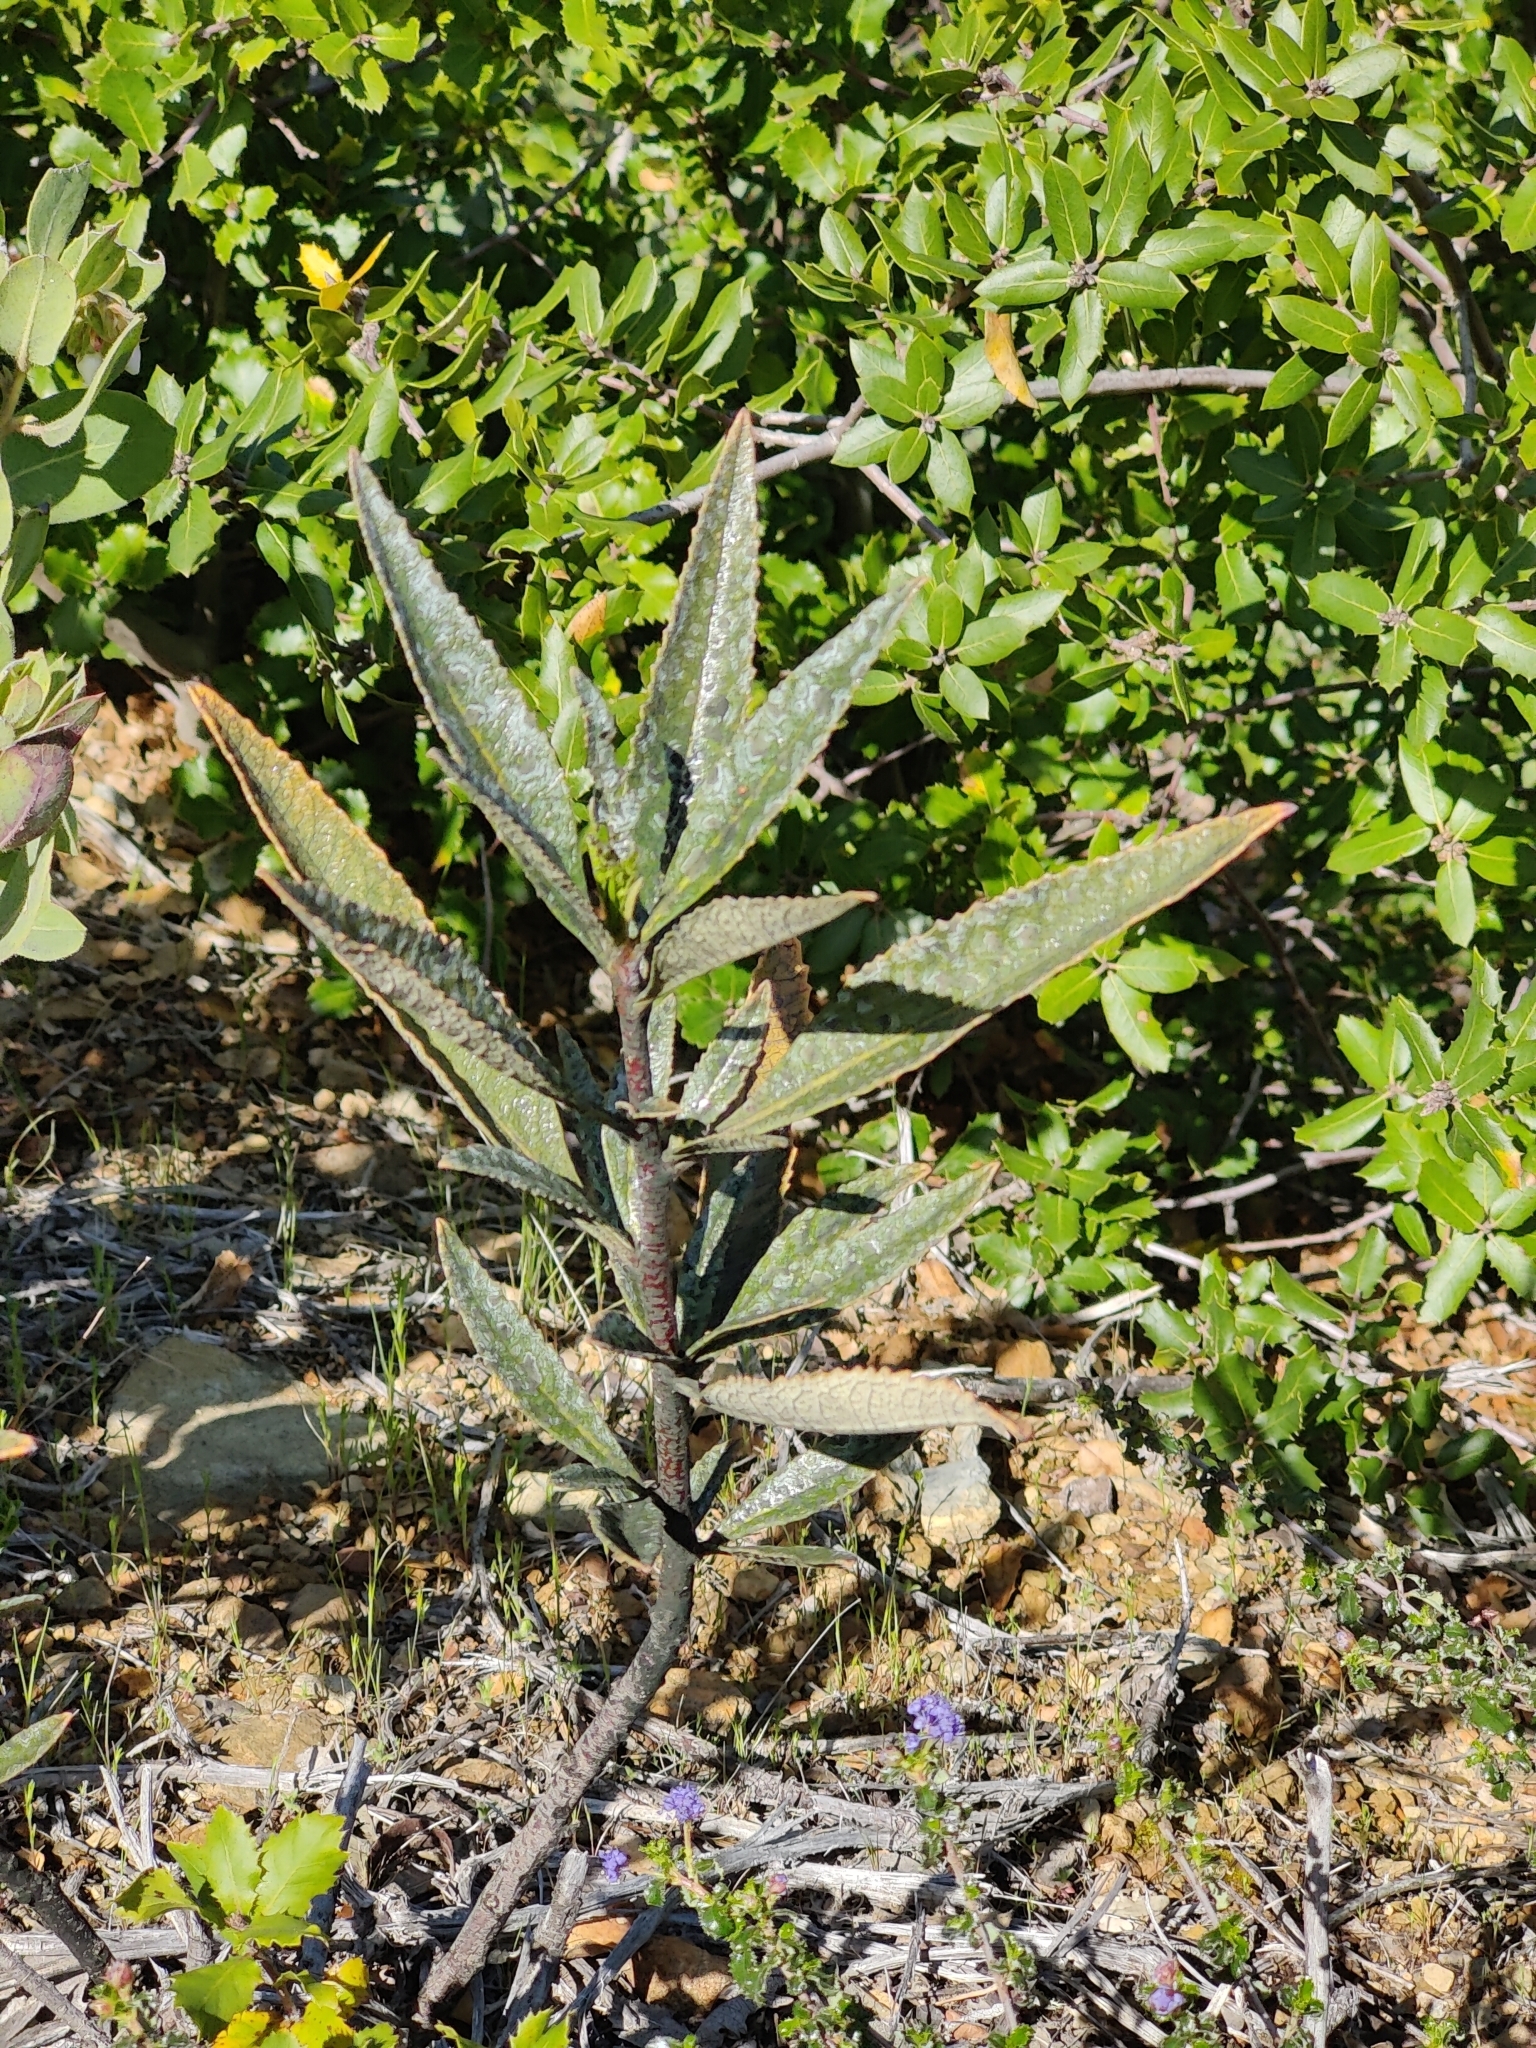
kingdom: Plantae
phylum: Tracheophyta
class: Magnoliopsida
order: Boraginales
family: Namaceae
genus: Eriodictyon
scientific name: Eriodictyon californicum
